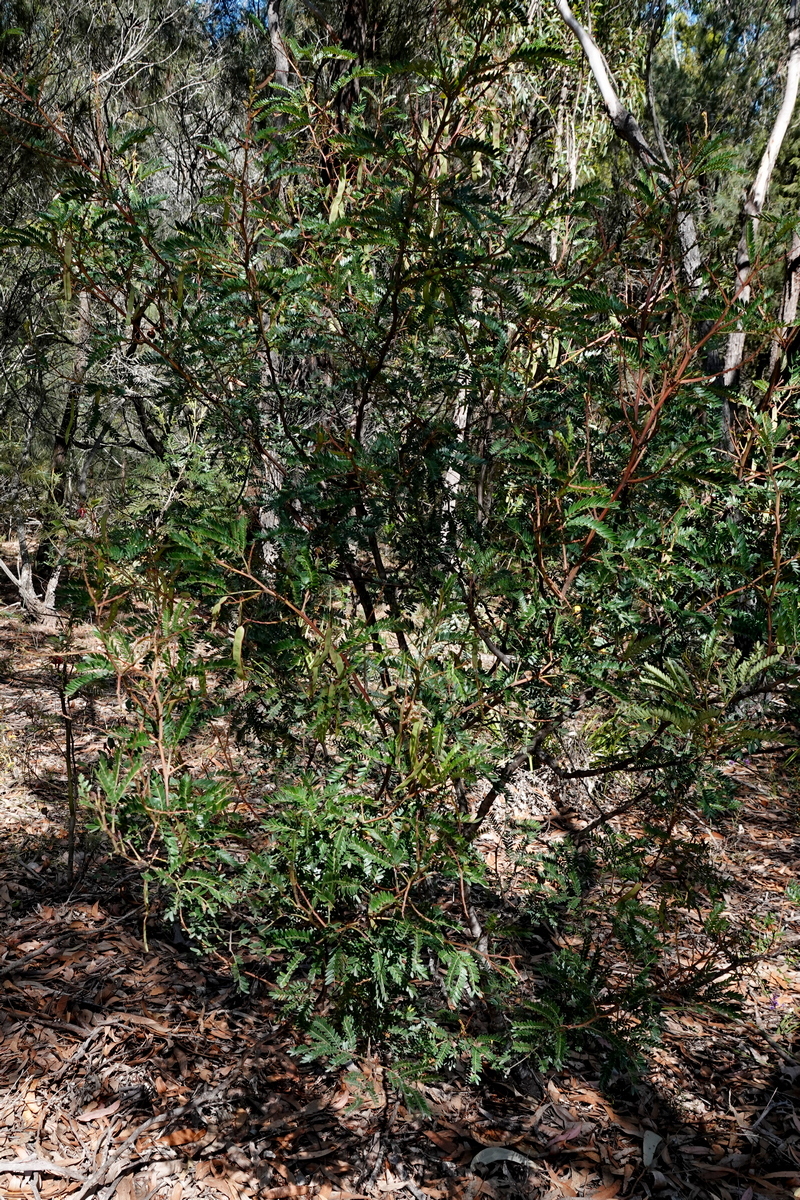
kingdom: Plantae
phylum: Tracheophyta
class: Magnoliopsida
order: Fabales
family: Fabaceae
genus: Acacia
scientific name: Acacia terminalis
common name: Cedar wattle
